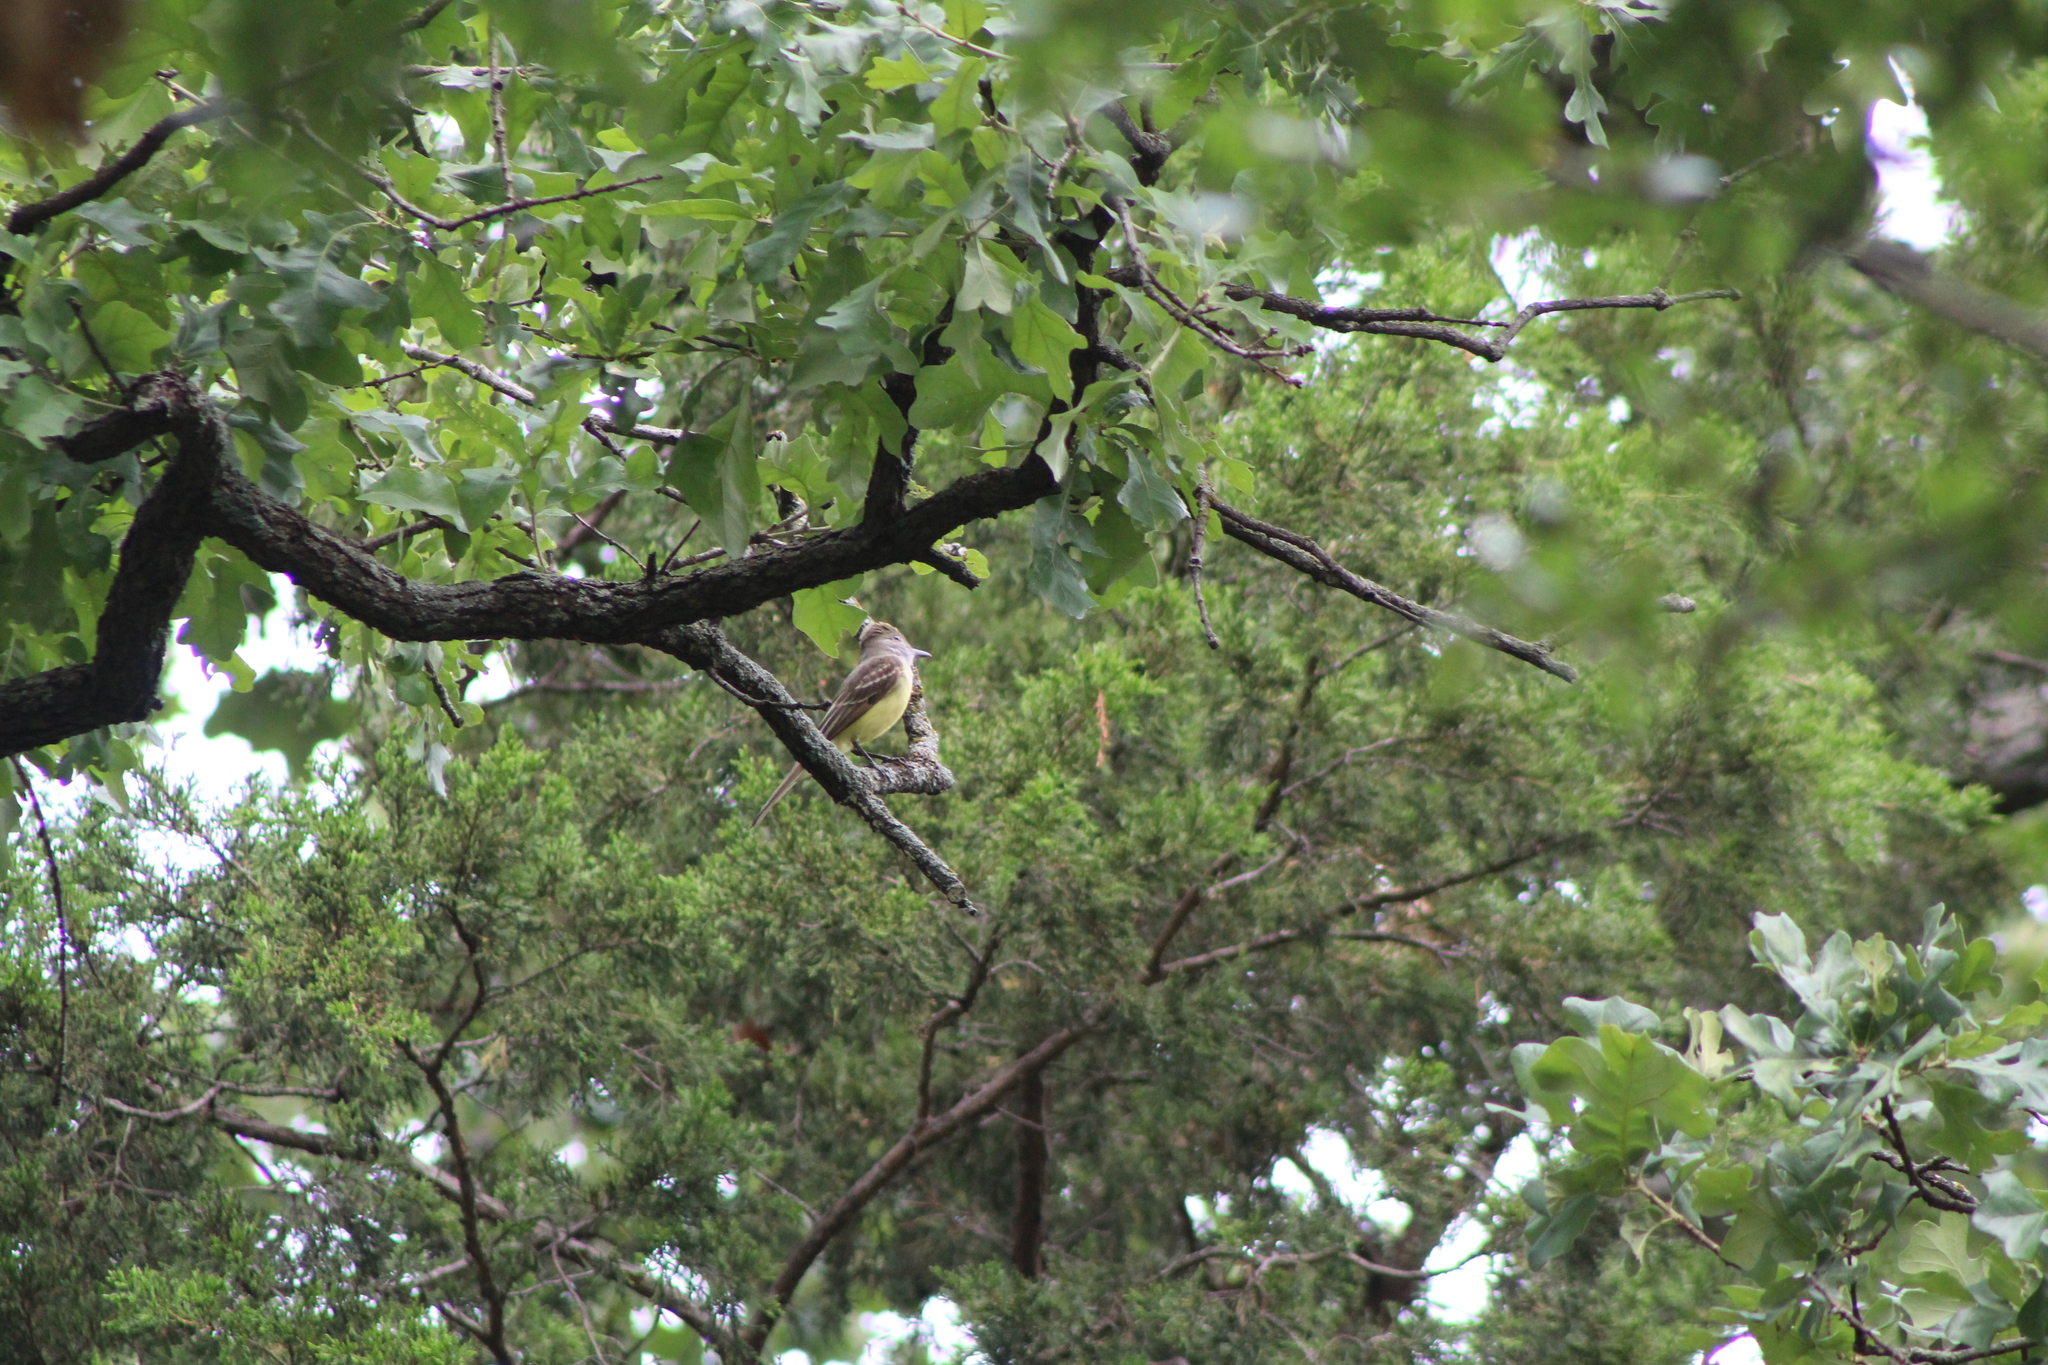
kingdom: Animalia
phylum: Chordata
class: Aves
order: Passeriformes
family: Tyrannidae
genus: Myiarchus
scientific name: Myiarchus crinitus
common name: Great crested flycatcher
